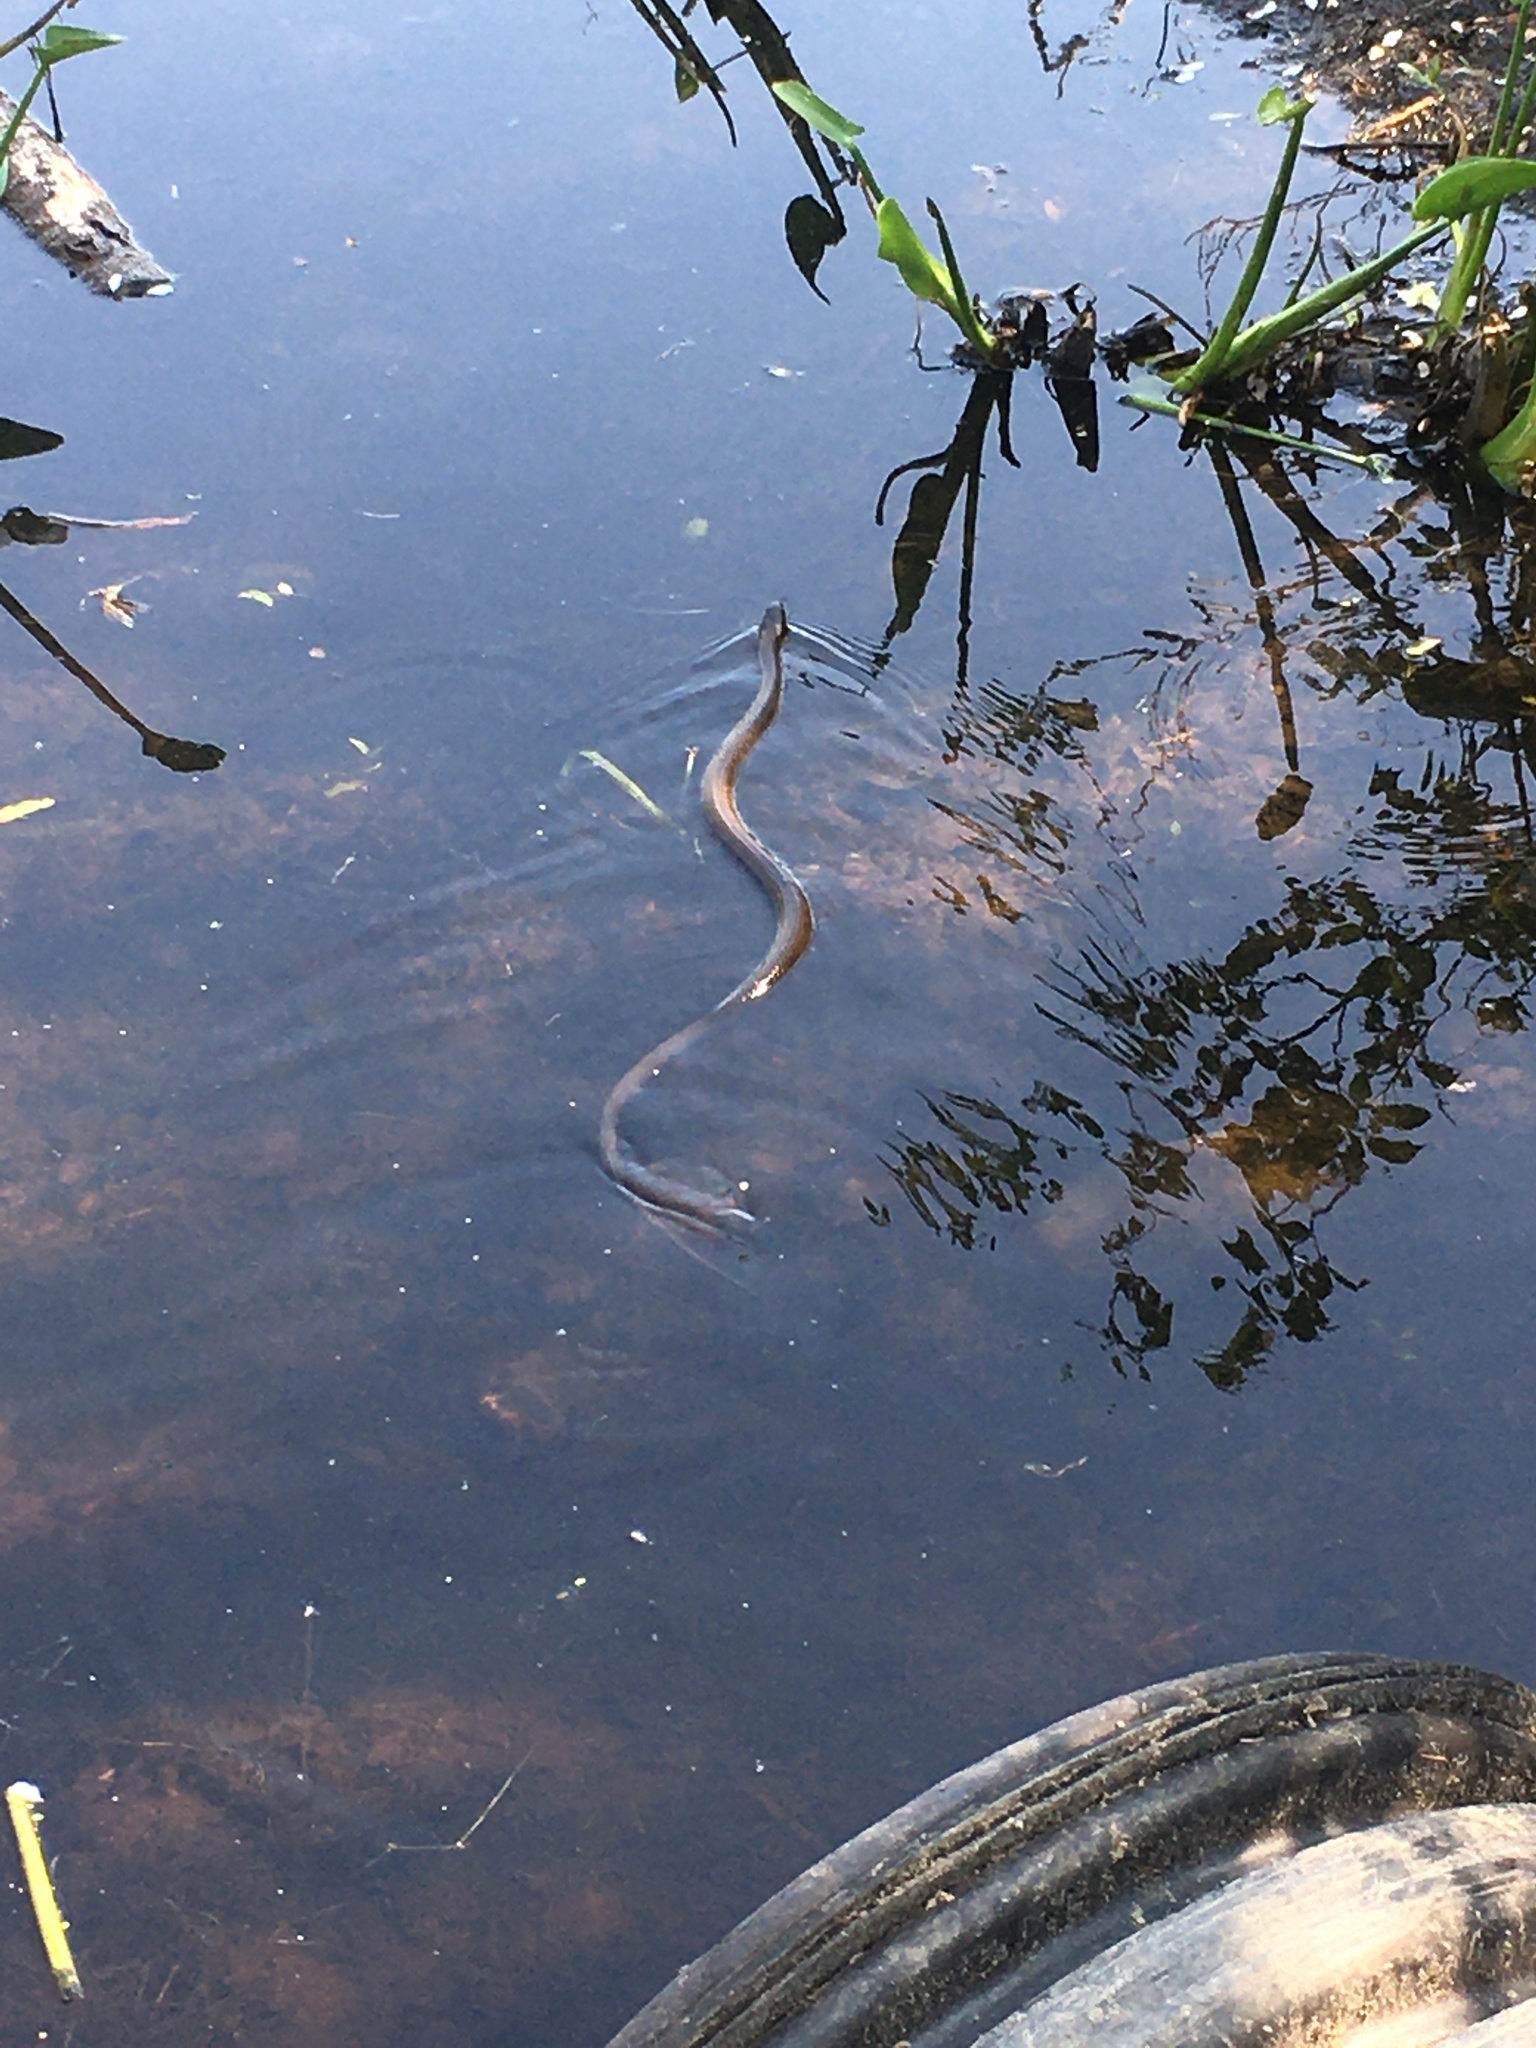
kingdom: Animalia
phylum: Chordata
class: Squamata
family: Colubridae
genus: Nerodia
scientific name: Nerodia sipedon
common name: Northern water snake
